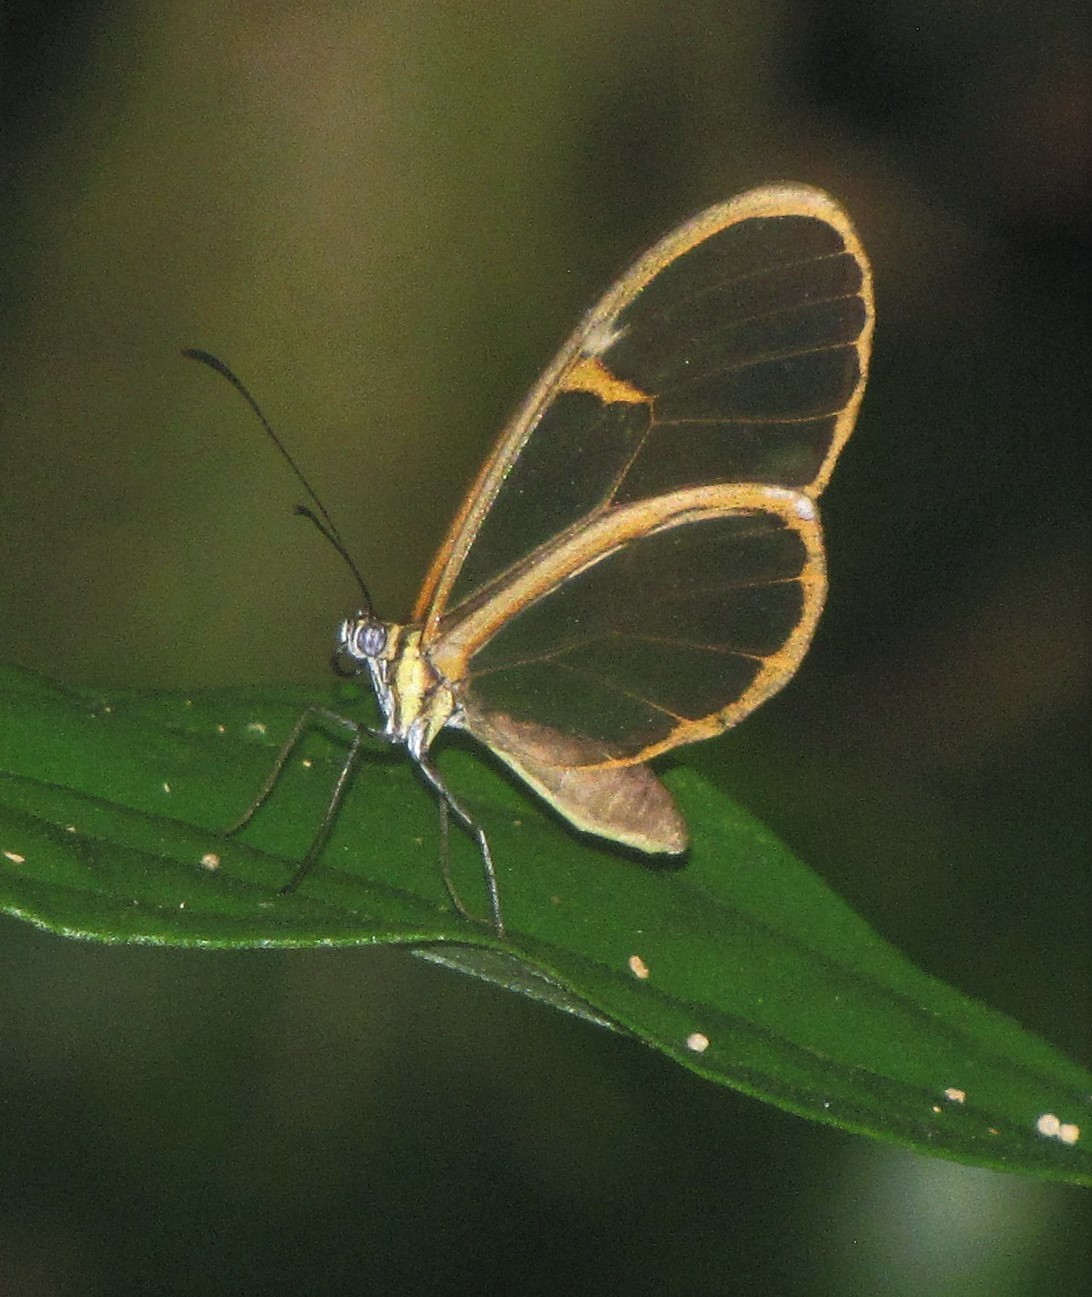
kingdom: Animalia
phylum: Arthropoda
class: Insecta
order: Lepidoptera
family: Nymphalidae
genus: Episcada
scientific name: Episcada sylvo
